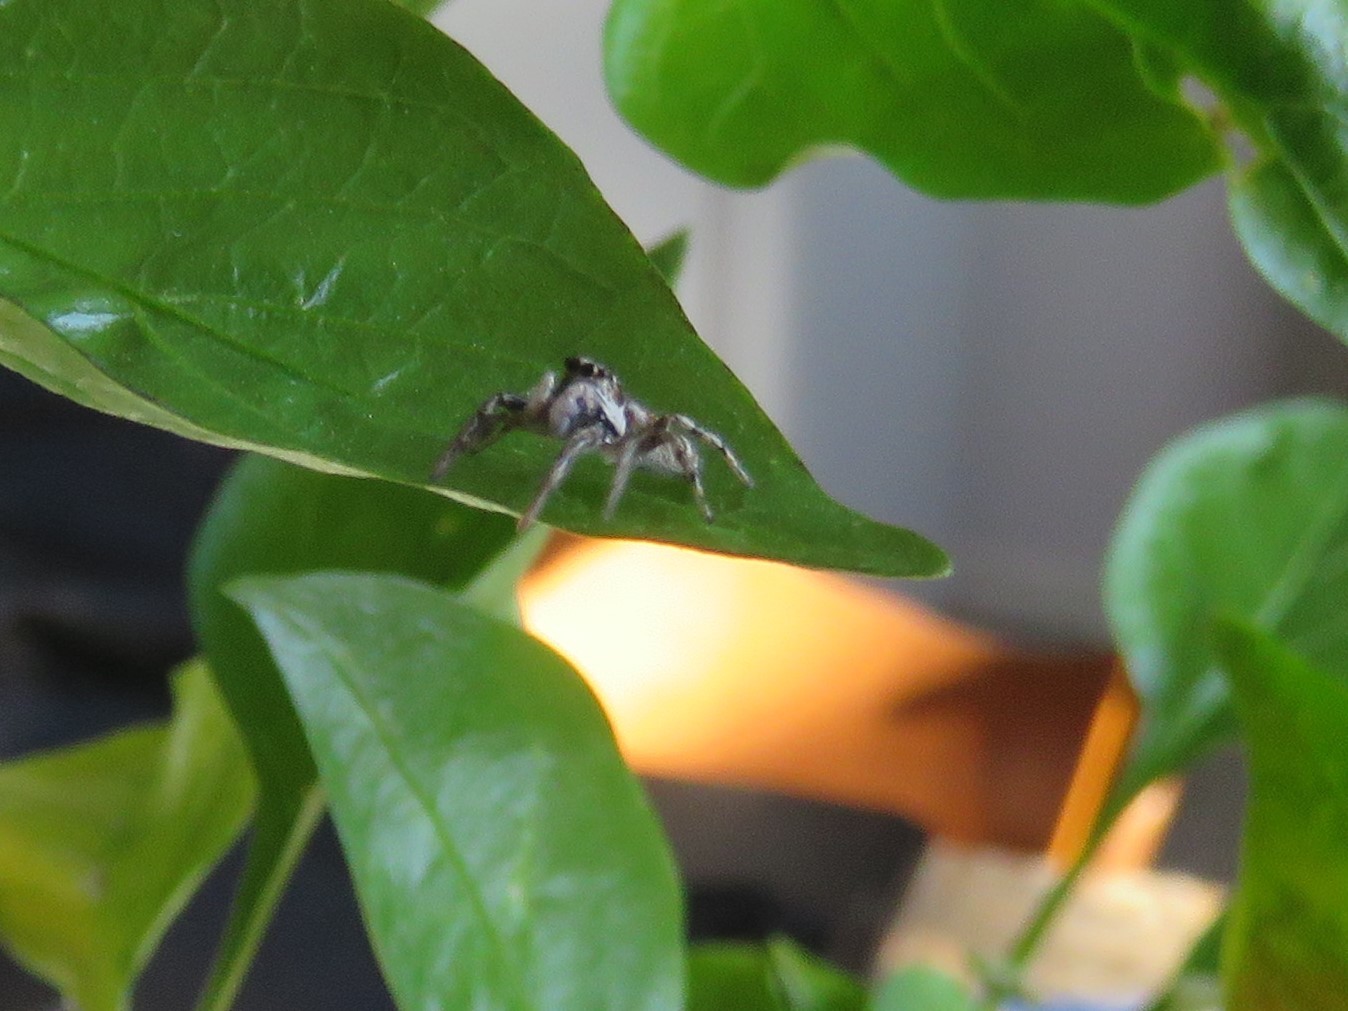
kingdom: Animalia
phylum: Arthropoda
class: Arachnida
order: Araneae
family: Salticidae
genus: Salticus
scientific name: Salticus scenicus
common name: Zebra jumper
